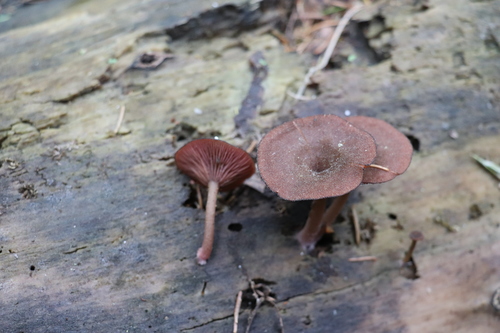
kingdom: Fungi
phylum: Basidiomycota
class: Agaricomycetes
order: Agaricales
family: Hygrophoraceae
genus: Arrhenia
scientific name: Arrhenia discorosea
